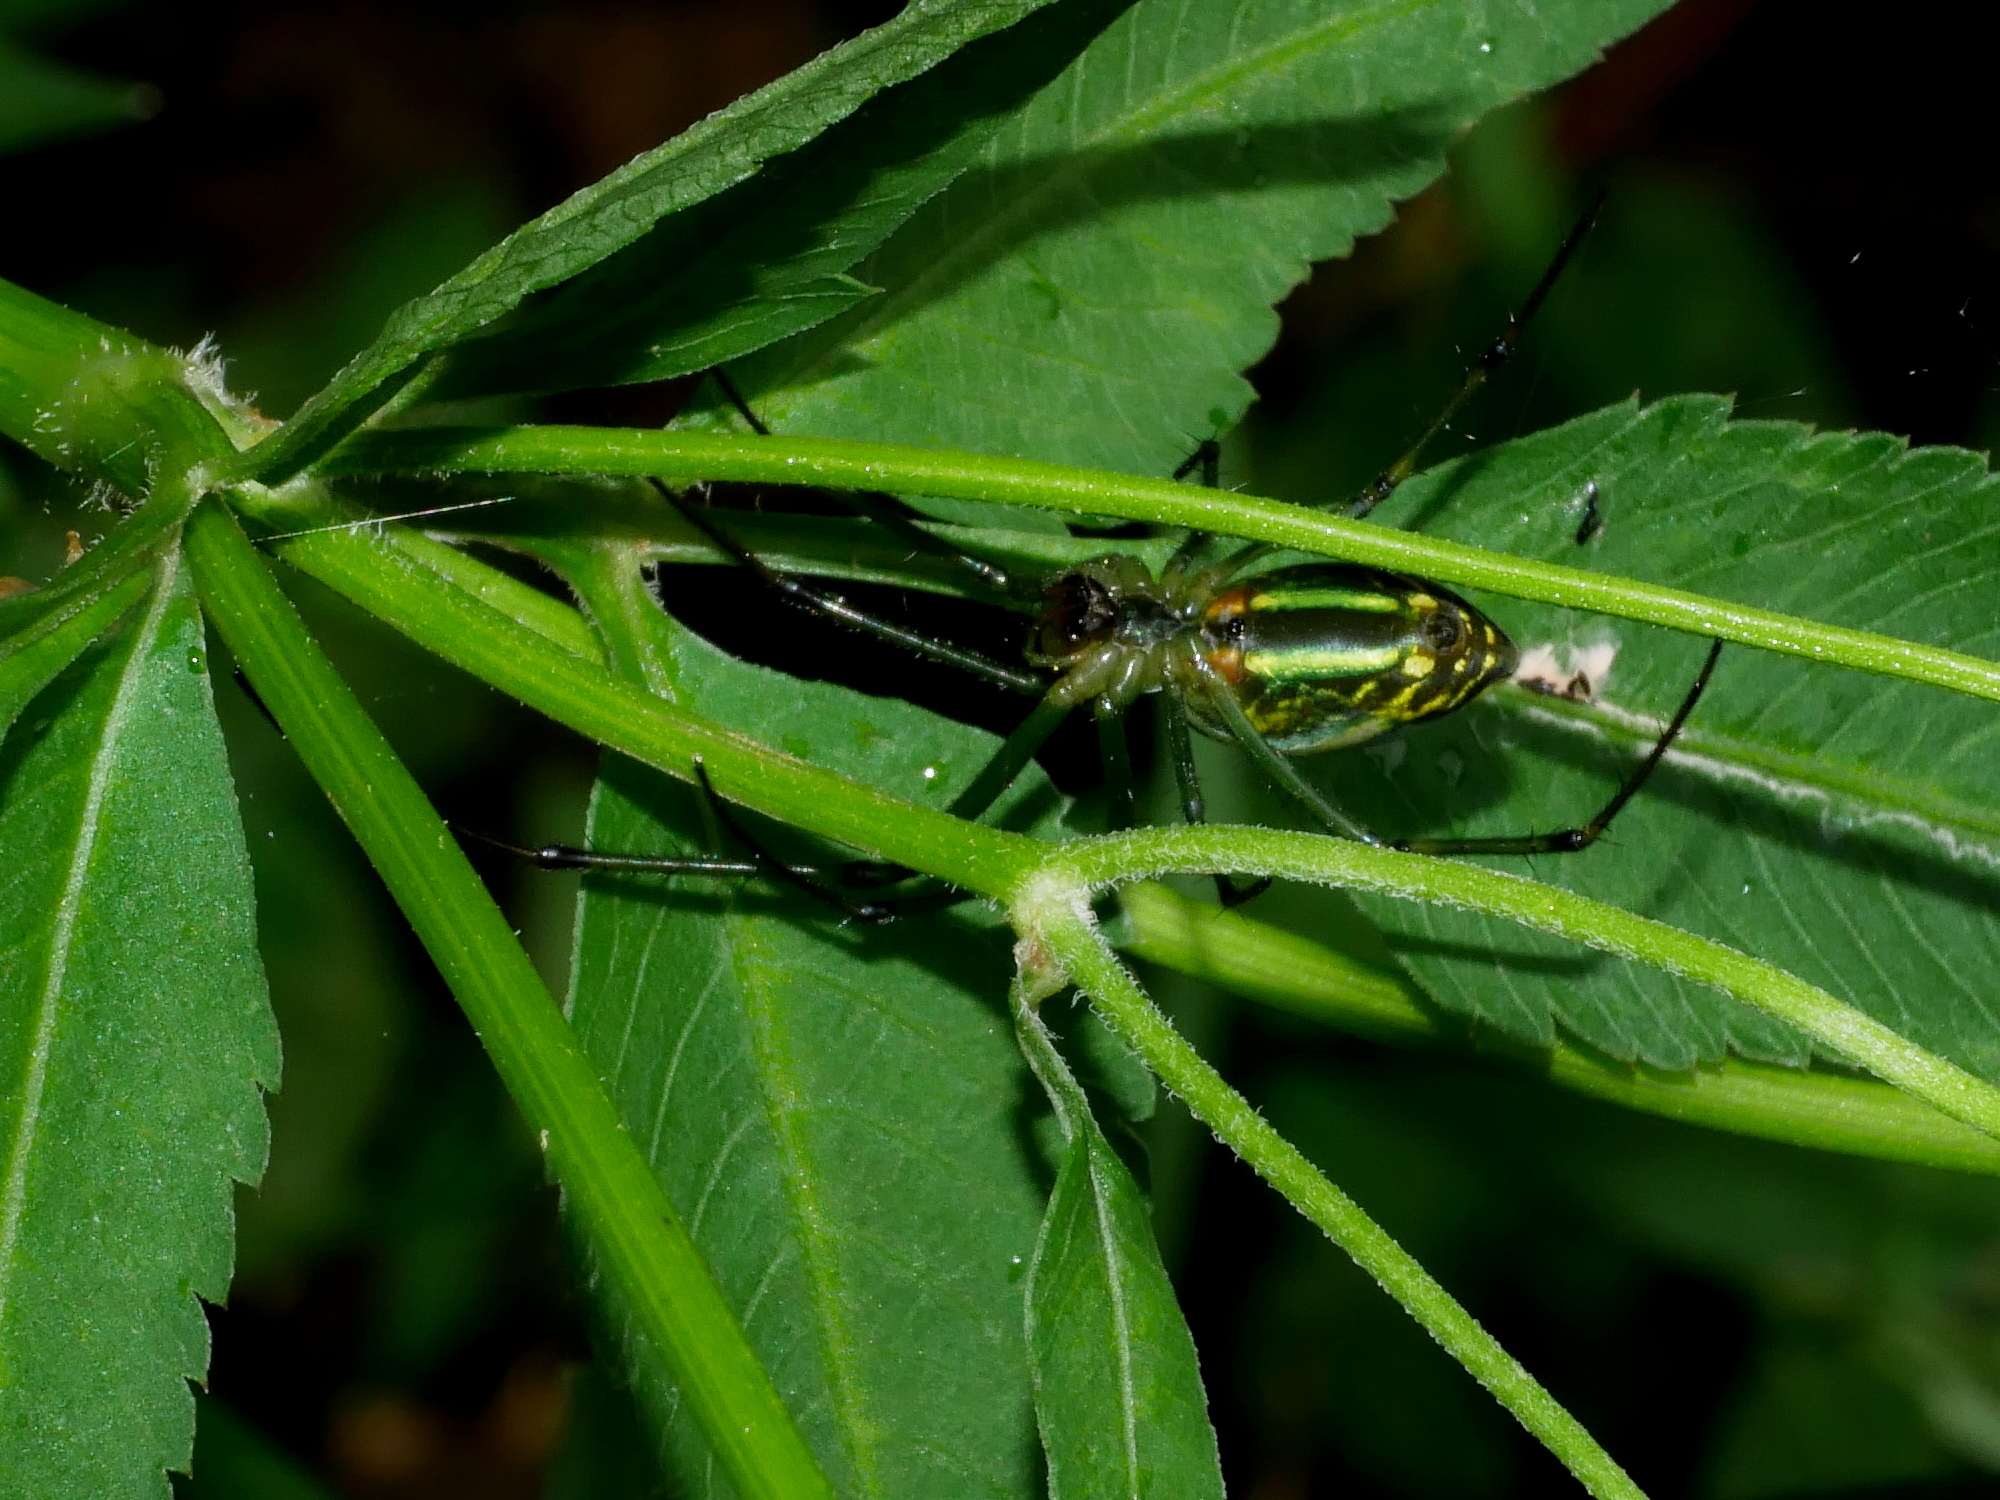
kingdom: Animalia
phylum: Arthropoda
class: Arachnida
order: Araneae
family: Tetragnathidae
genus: Leucauge
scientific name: Leucauge celebesiana
